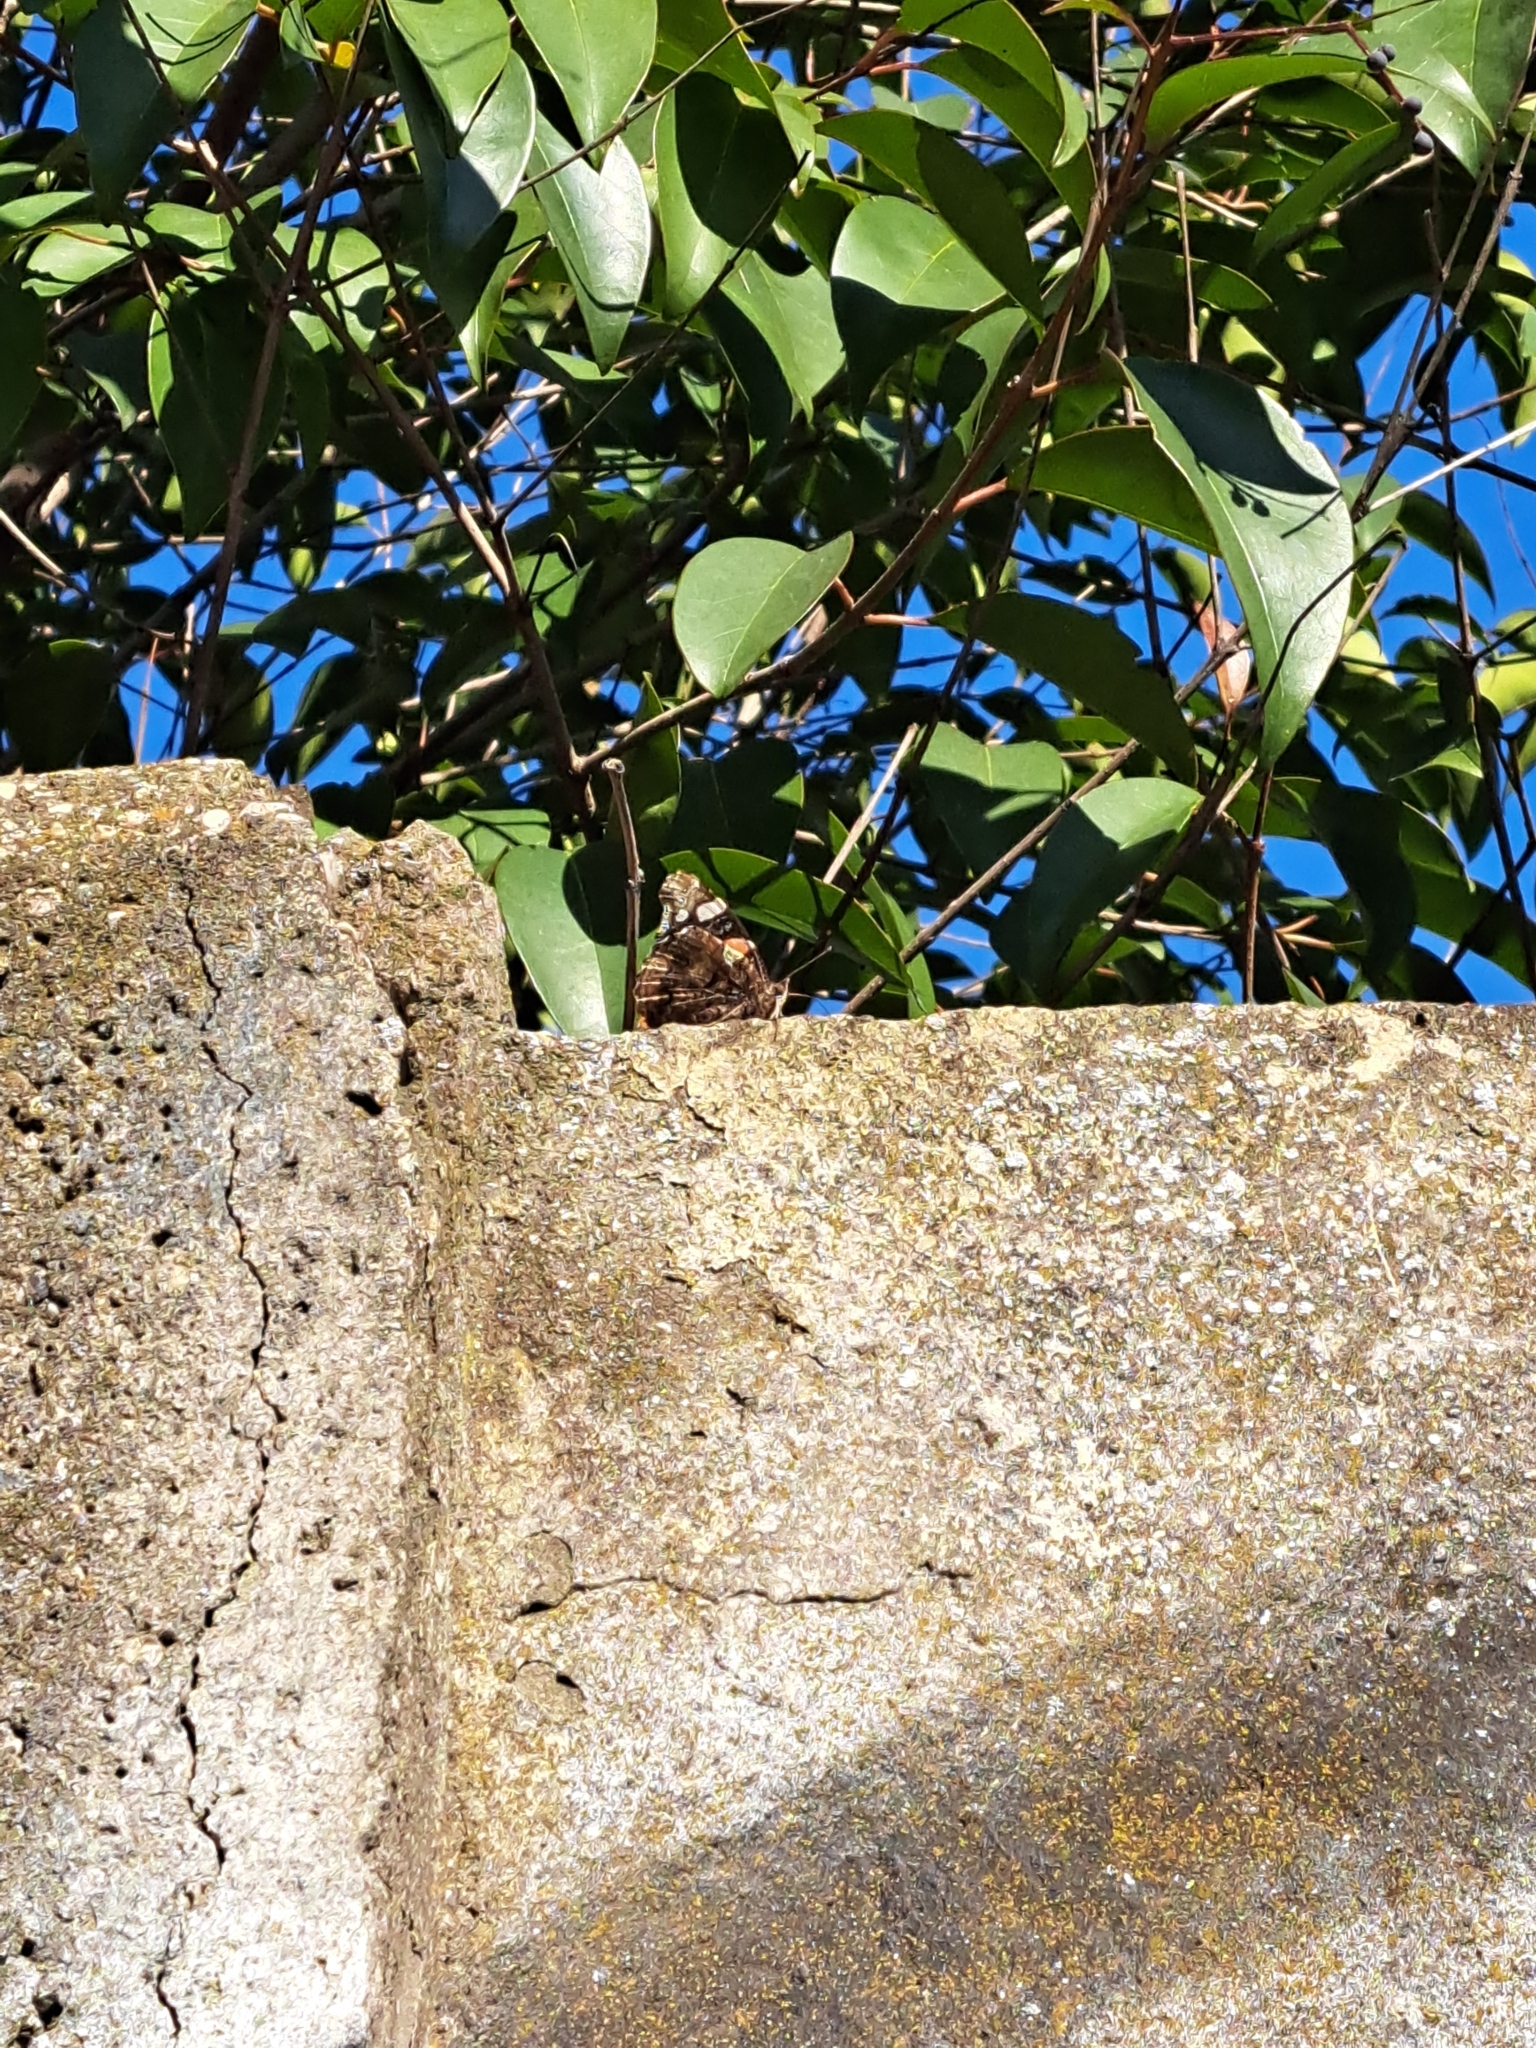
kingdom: Animalia
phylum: Arthropoda
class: Insecta
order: Lepidoptera
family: Nymphalidae
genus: Vanessa
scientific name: Vanessa atalanta
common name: Red admiral
